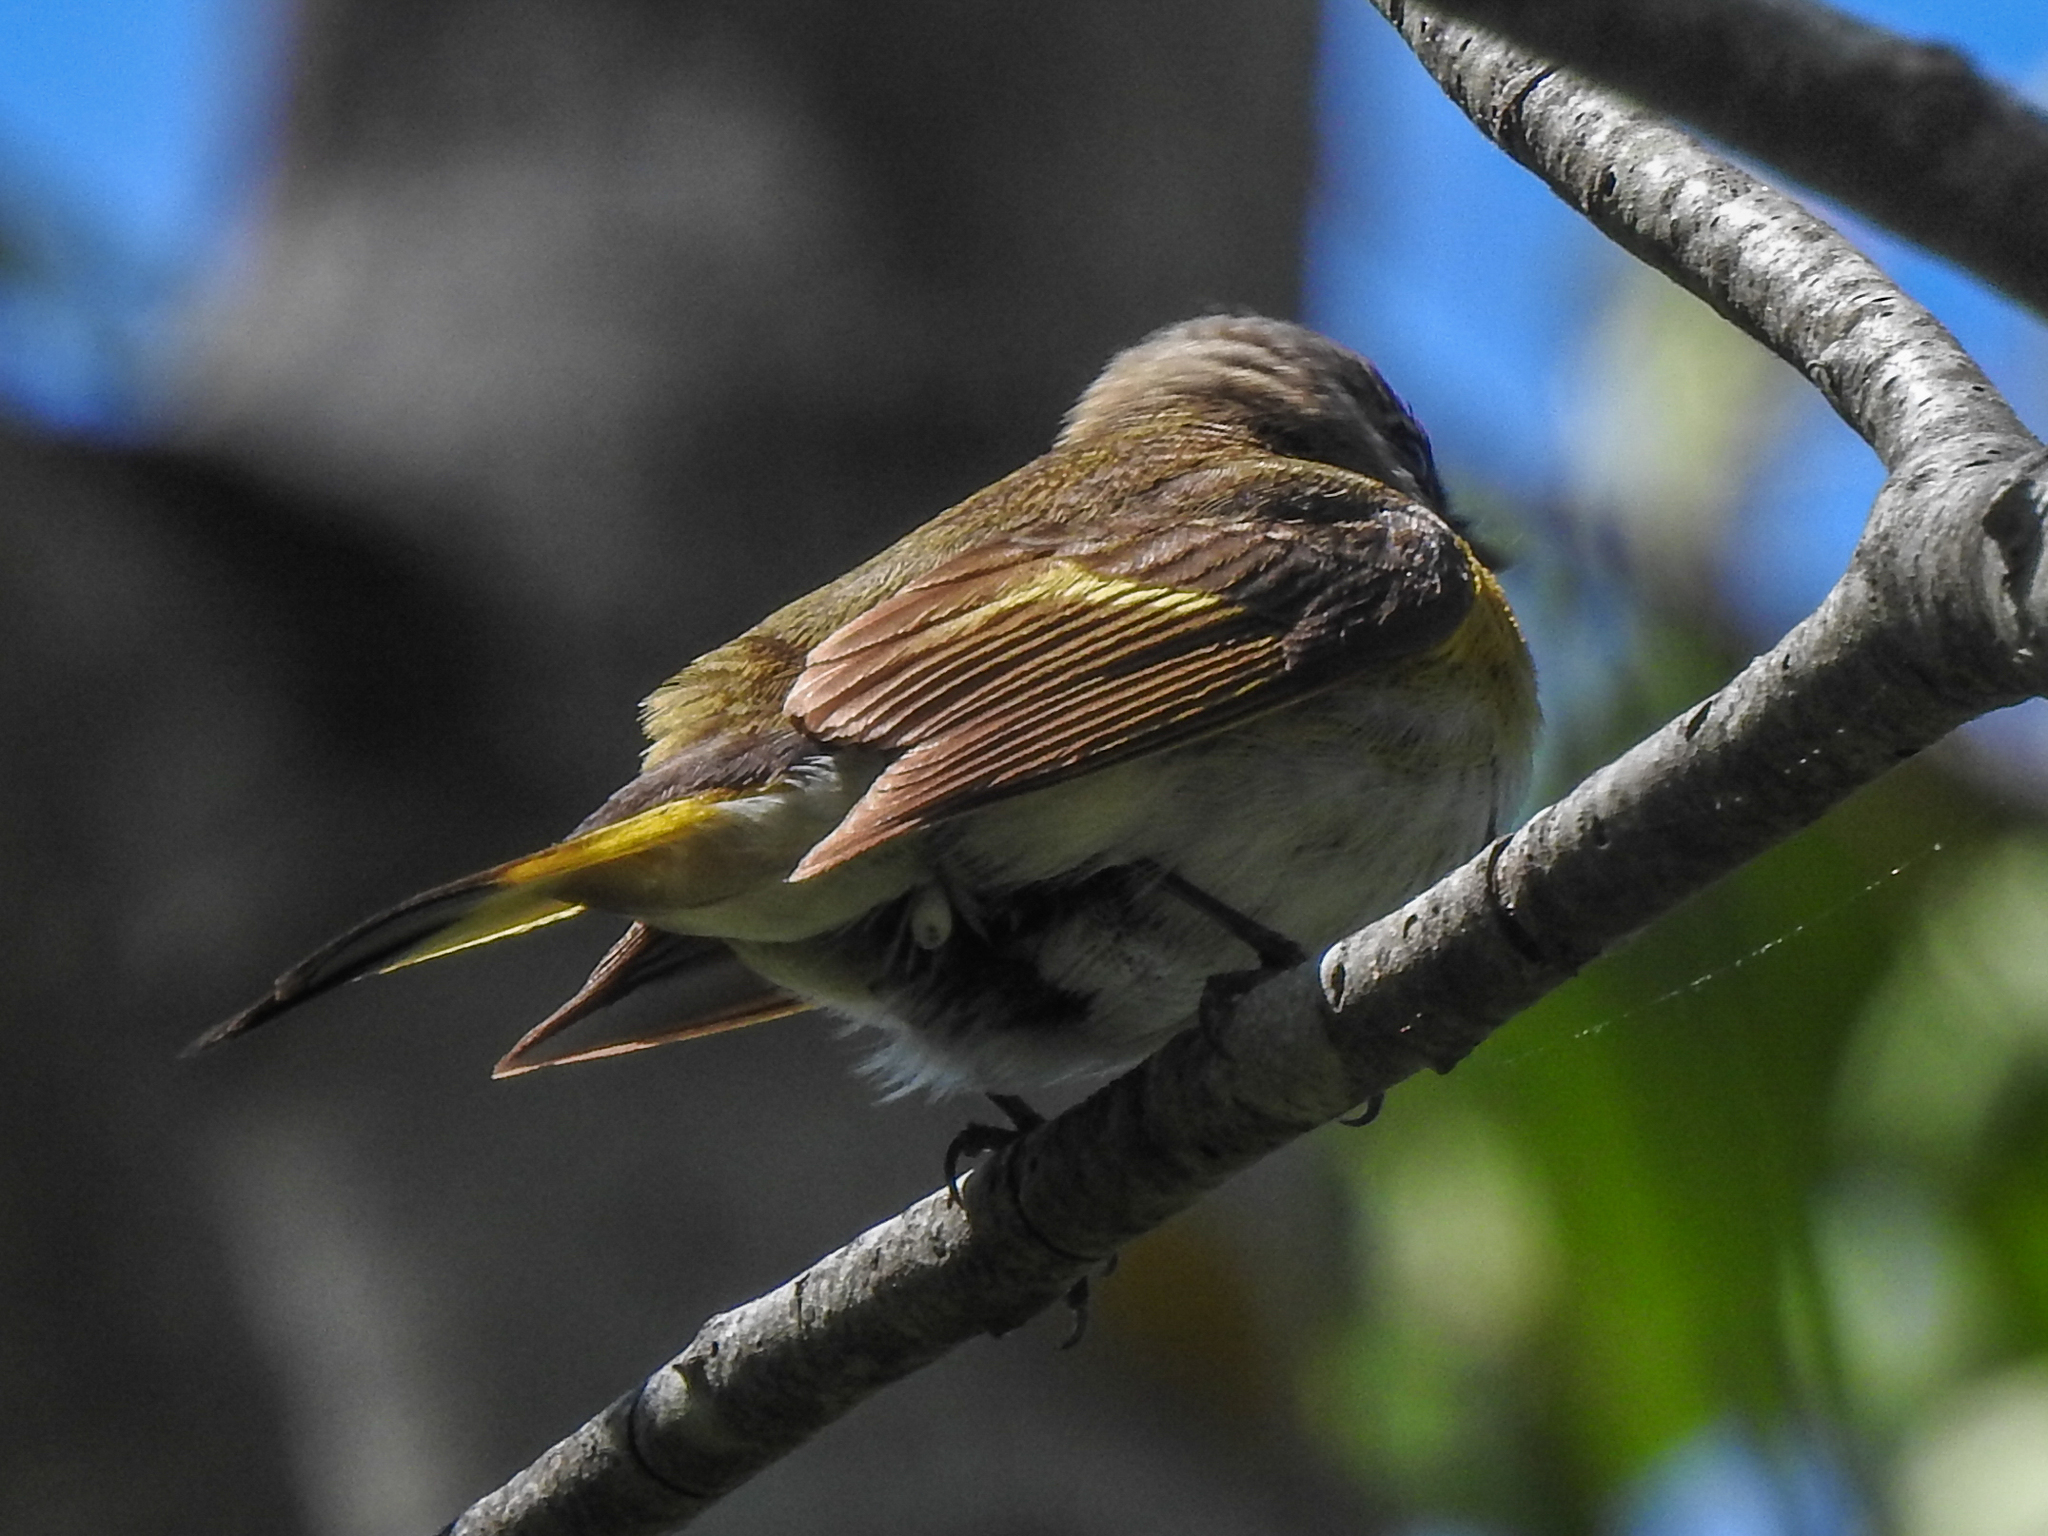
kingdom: Animalia
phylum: Chordata
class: Aves
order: Passeriformes
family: Parulidae
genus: Setophaga
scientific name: Setophaga ruticilla
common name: American redstart
